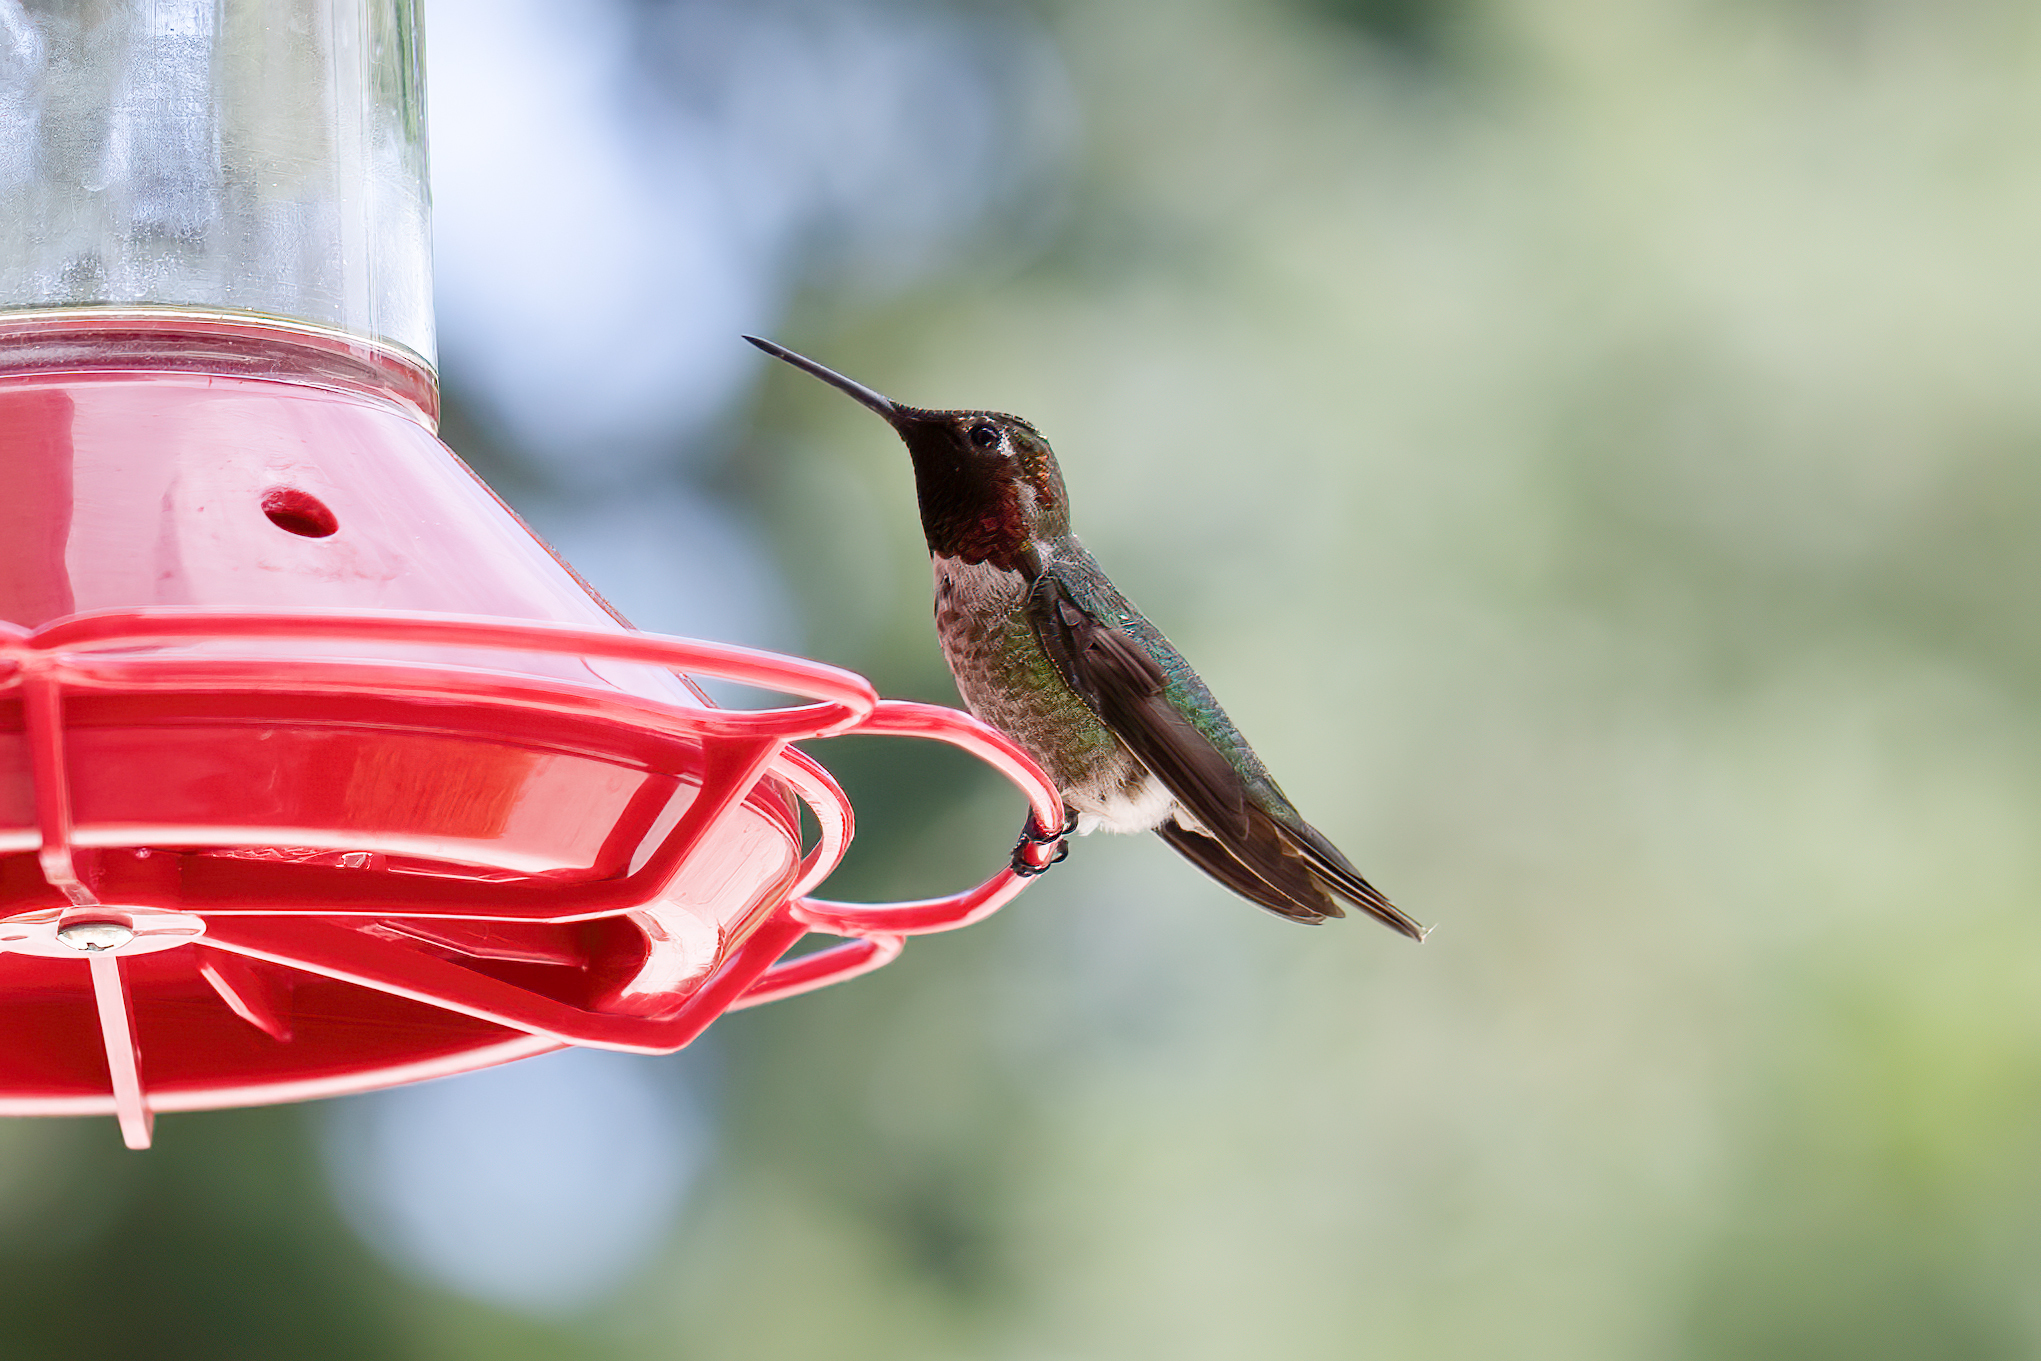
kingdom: Animalia
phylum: Chordata
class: Aves
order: Apodiformes
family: Trochilidae
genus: Calypte
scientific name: Calypte anna
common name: Anna's hummingbird
